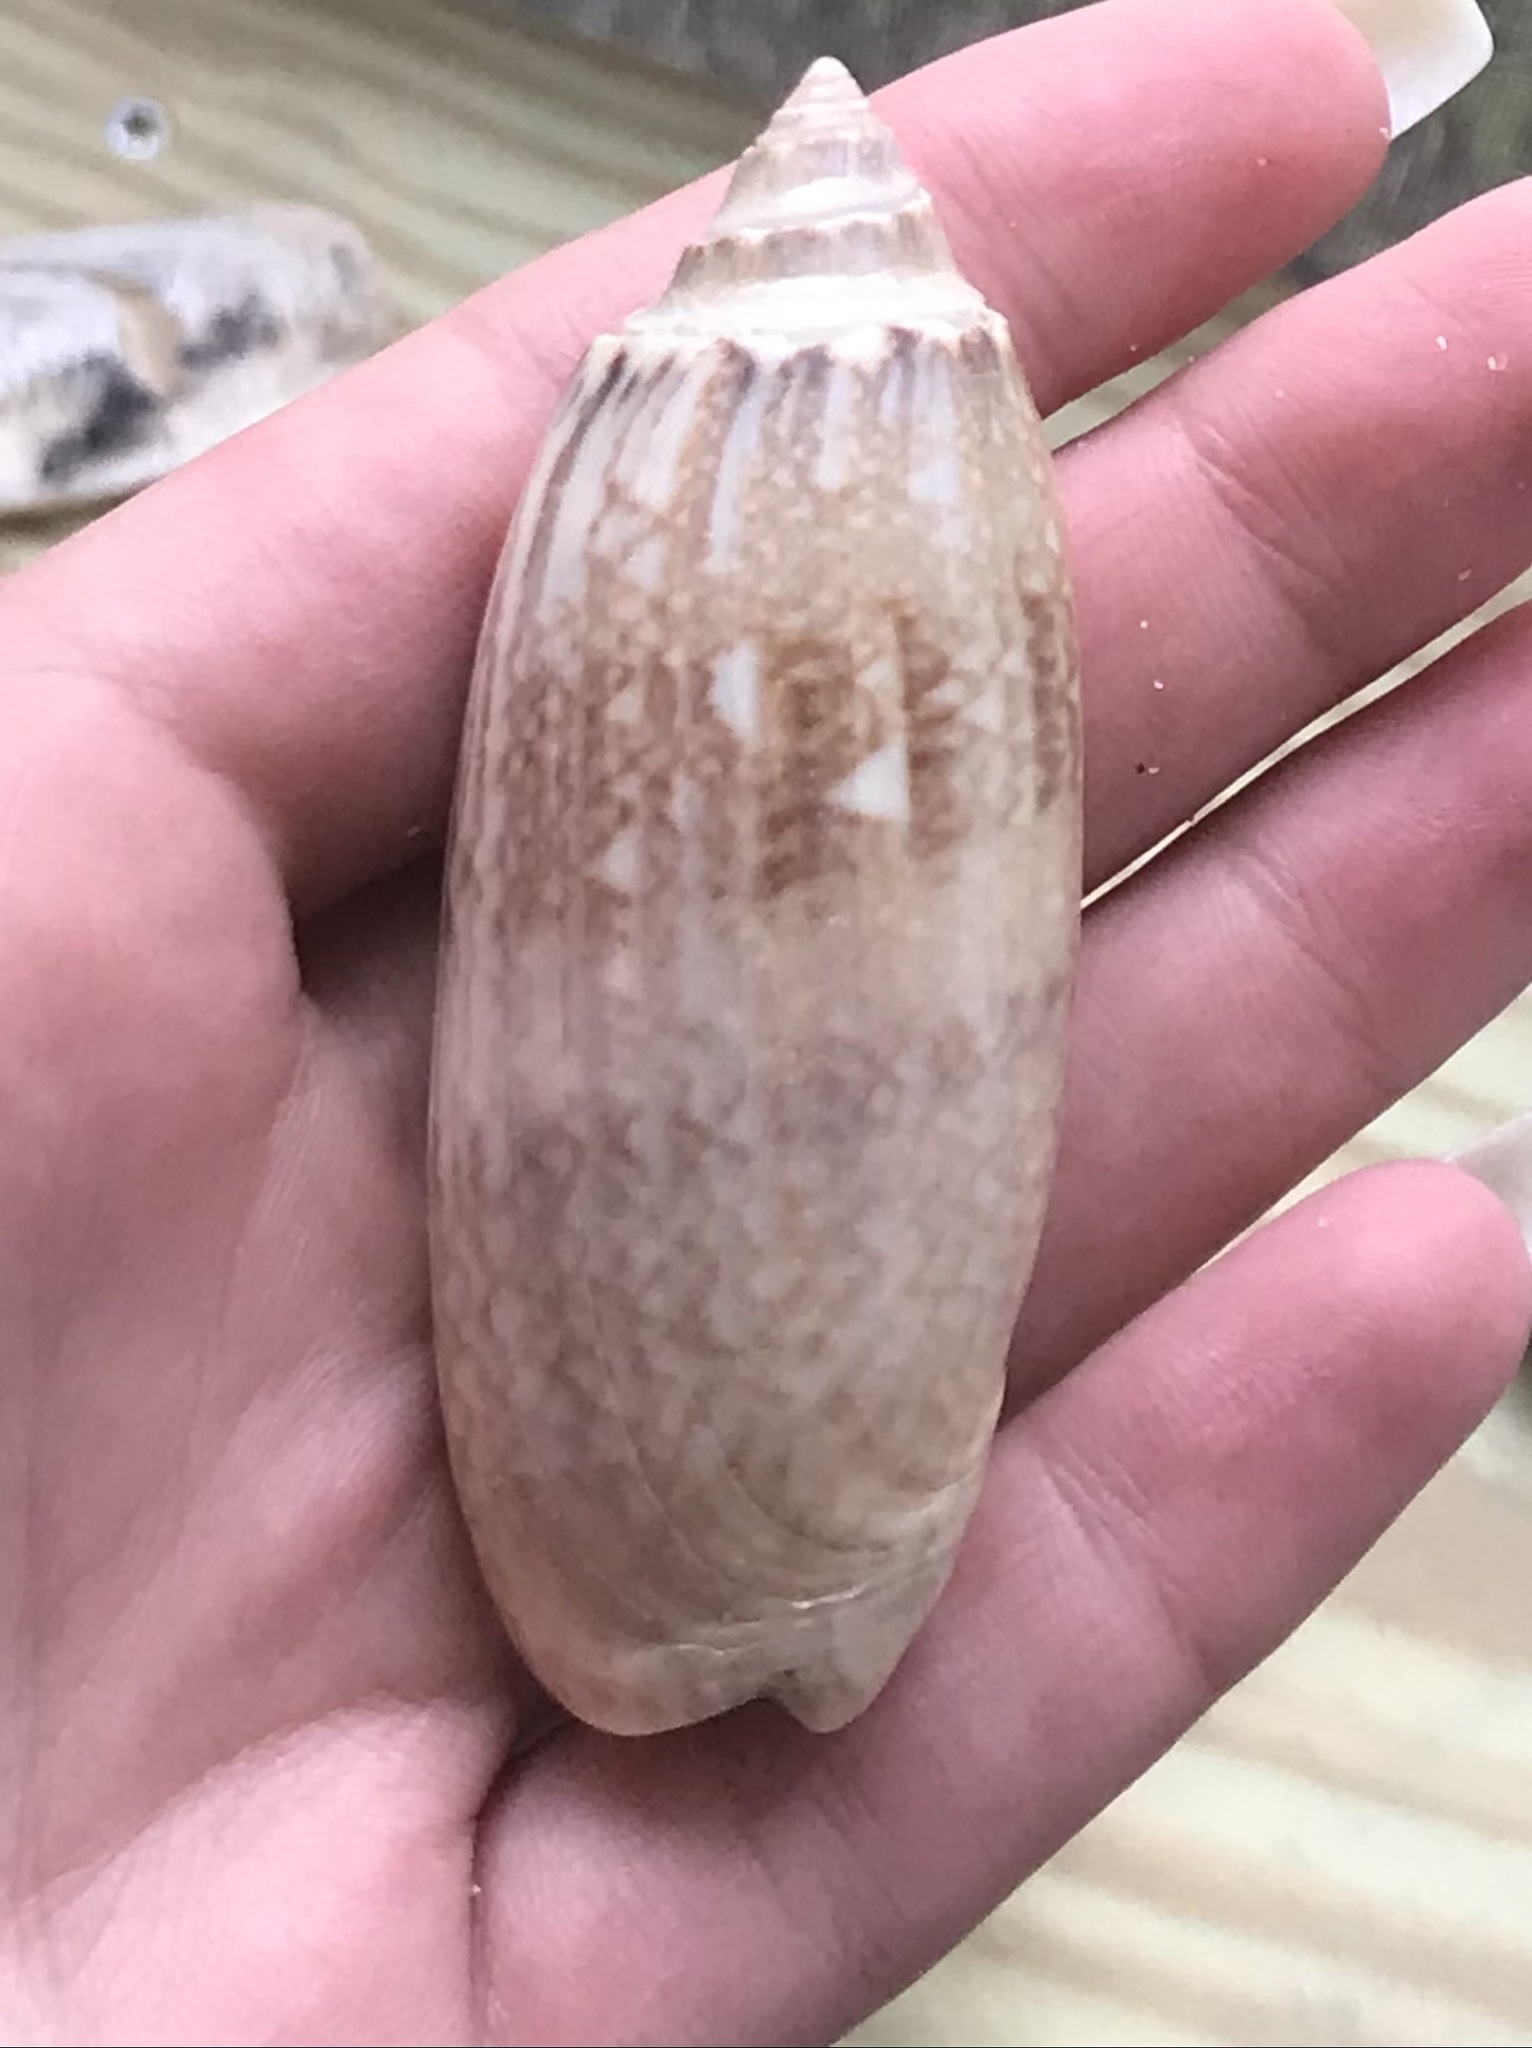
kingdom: Animalia
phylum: Mollusca
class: Gastropoda
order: Neogastropoda
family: Olividae
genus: Oliva
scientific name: Oliva sayana
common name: Lettered olive
